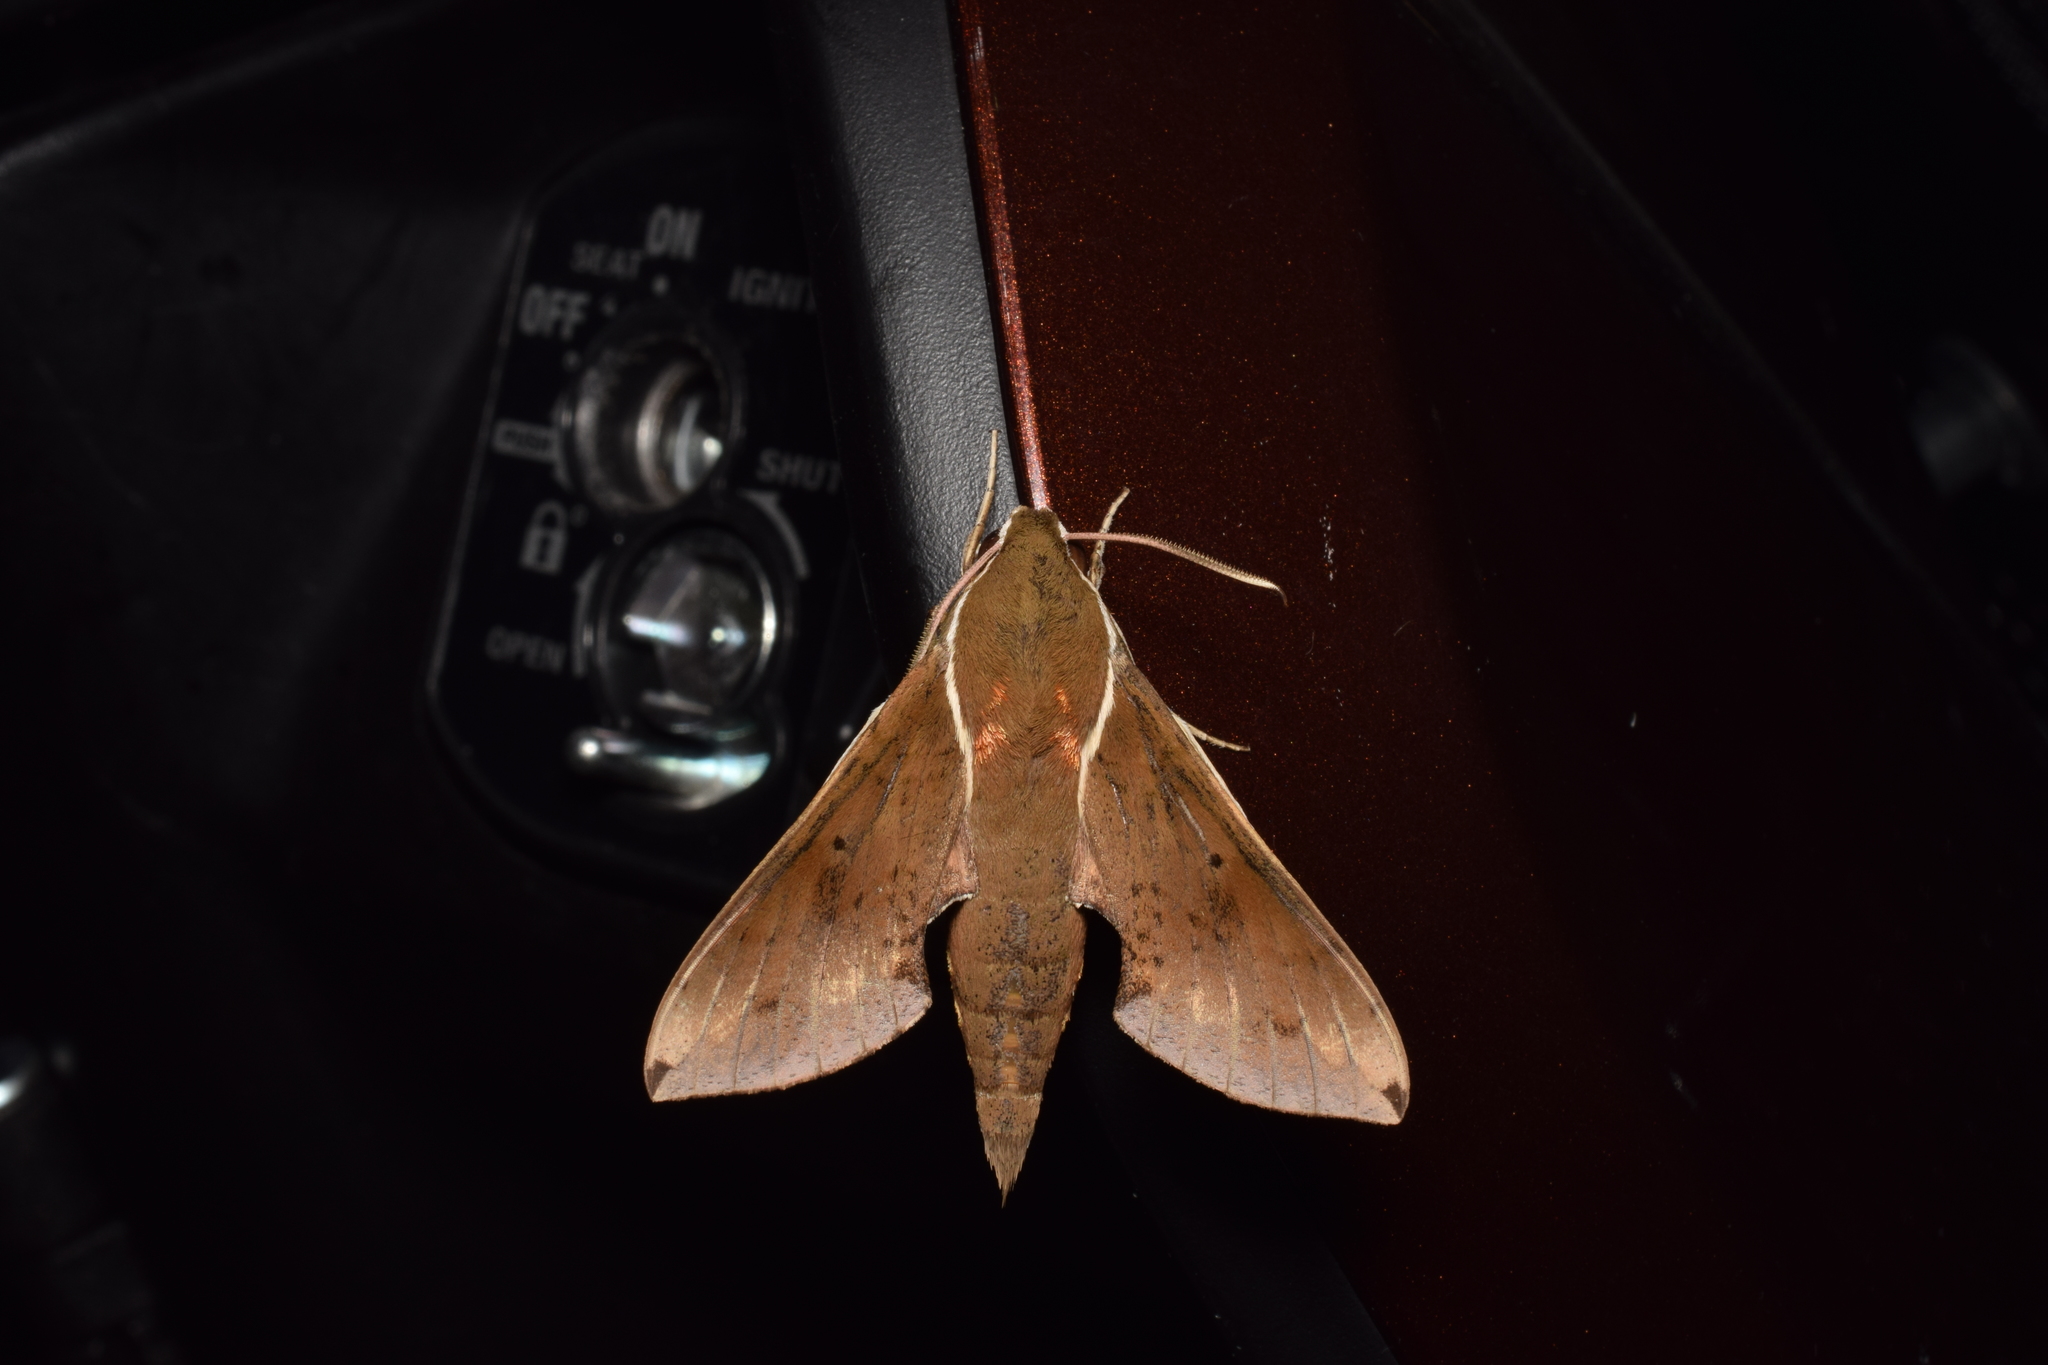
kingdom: Animalia
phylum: Arthropoda
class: Insecta
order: Lepidoptera
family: Sphingidae
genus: Rhagastis
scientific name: Rhagastis mongoliana
